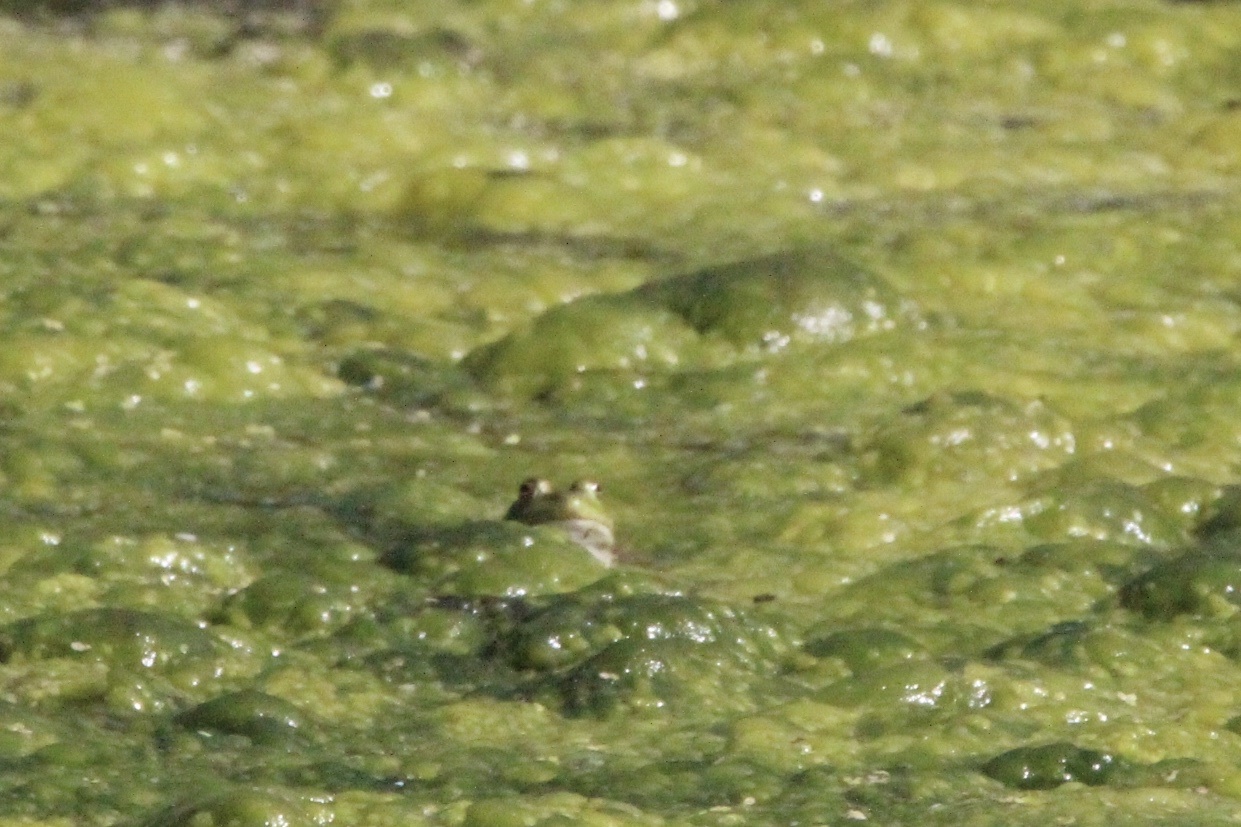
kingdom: Animalia
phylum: Chordata
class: Amphibia
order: Anura
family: Ranidae
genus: Lithobates
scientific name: Lithobates catesbeianus
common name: American bullfrog
